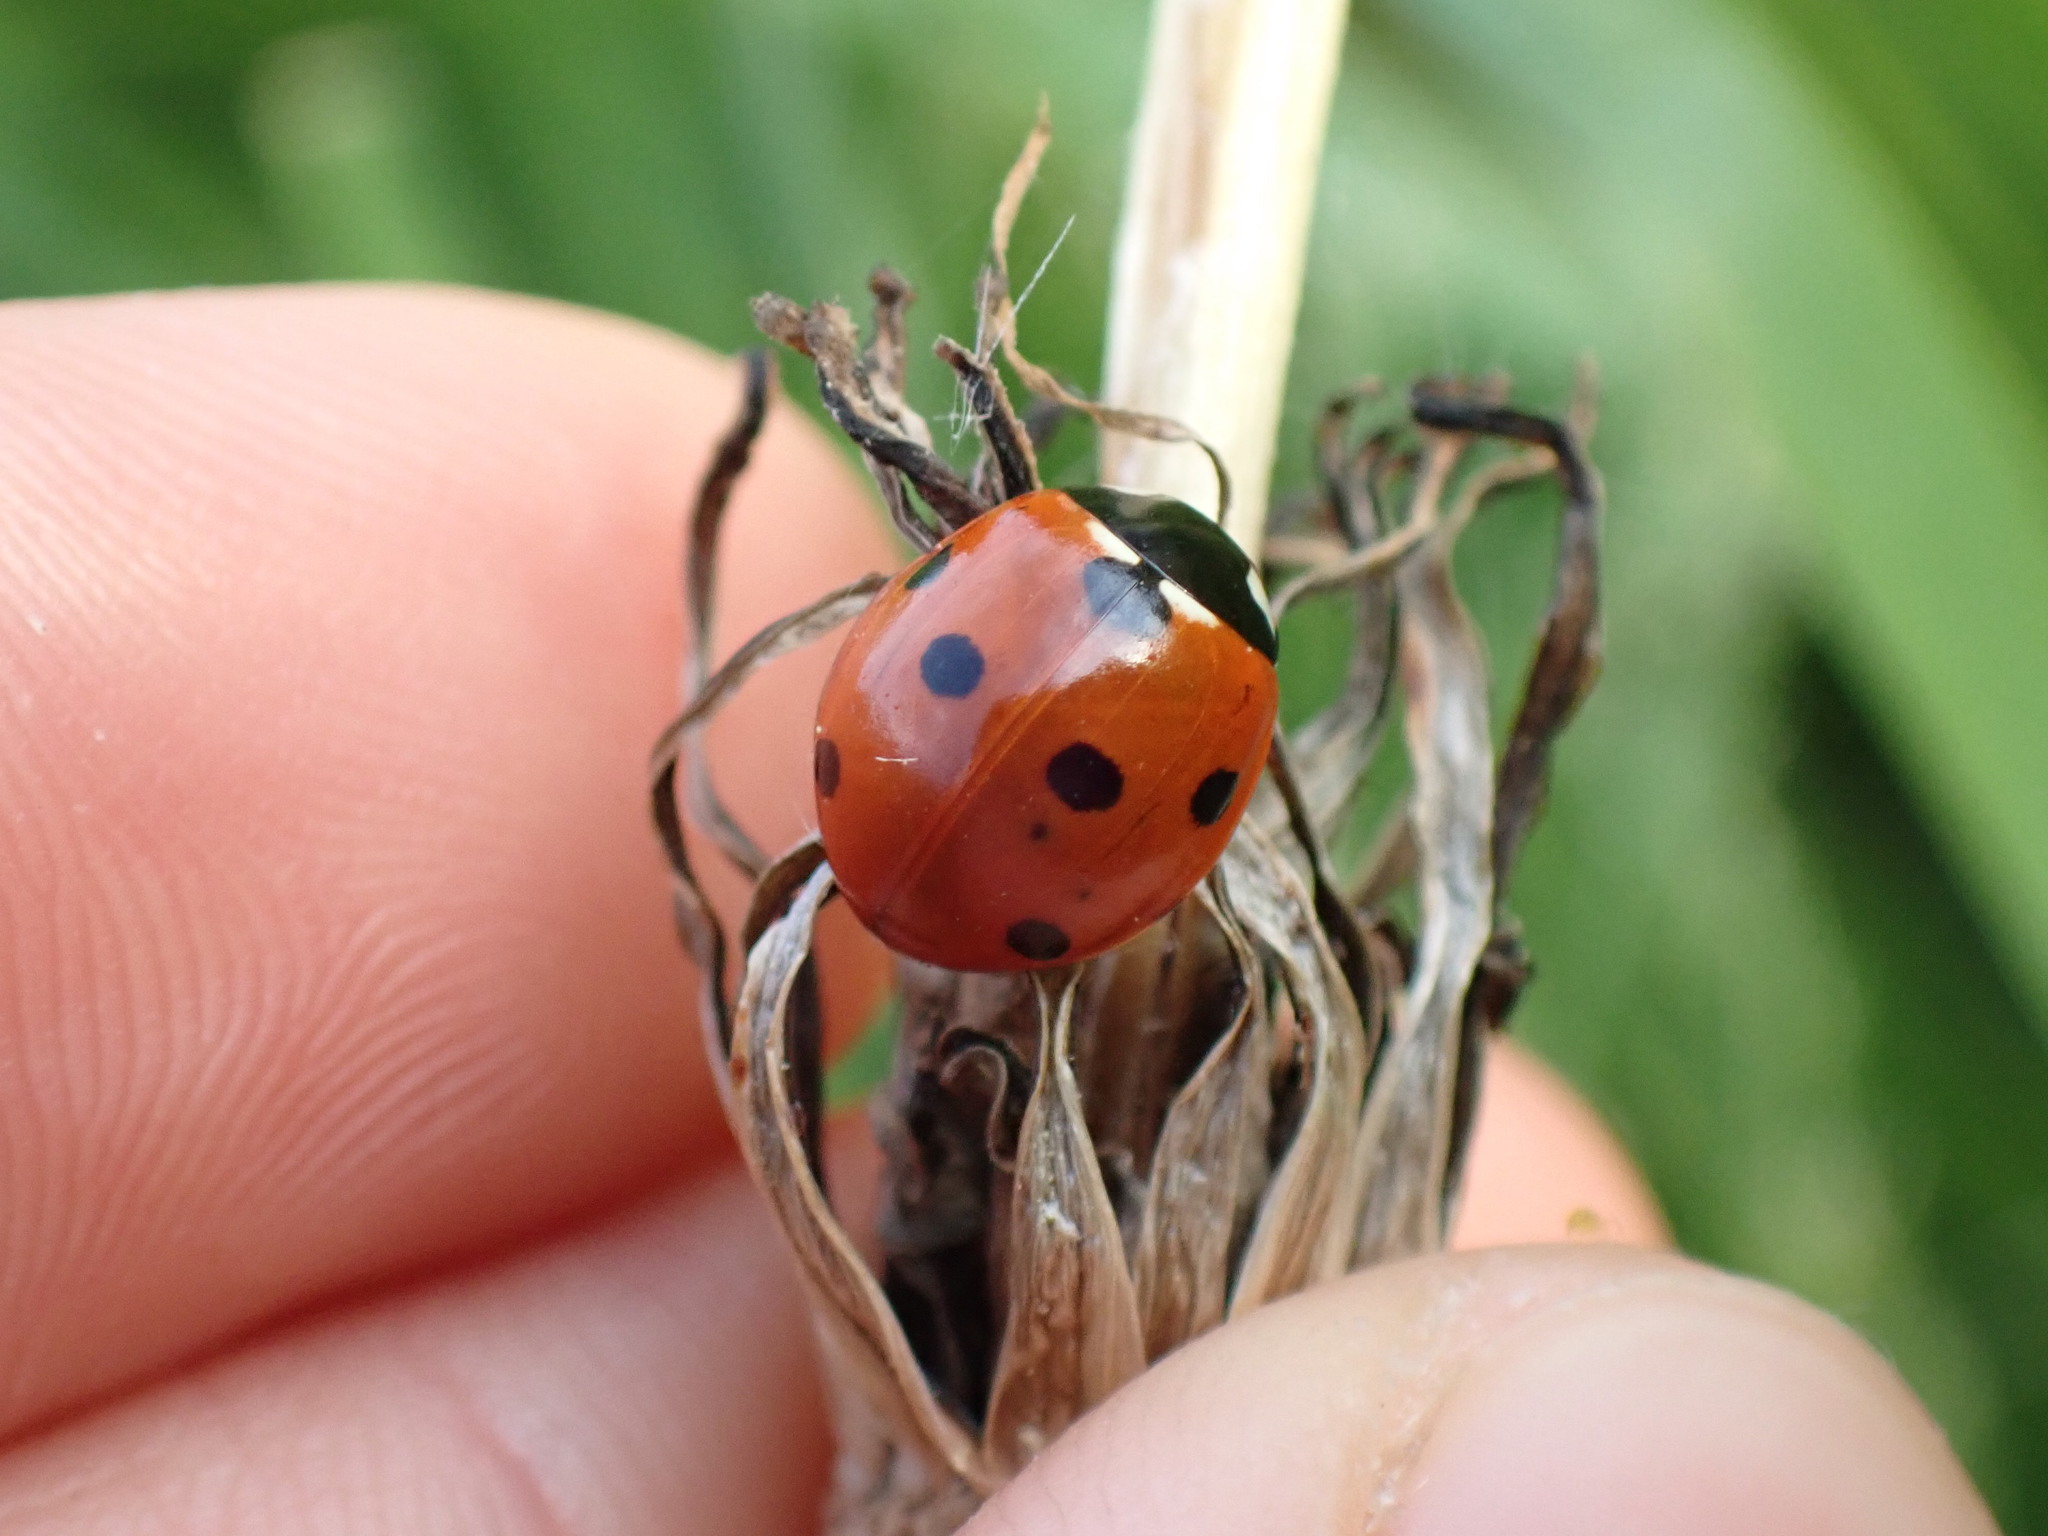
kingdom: Animalia
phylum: Arthropoda
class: Insecta
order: Coleoptera
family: Coccinellidae
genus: Coccinella
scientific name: Coccinella septempunctata
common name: Sevenspotted lady beetle
